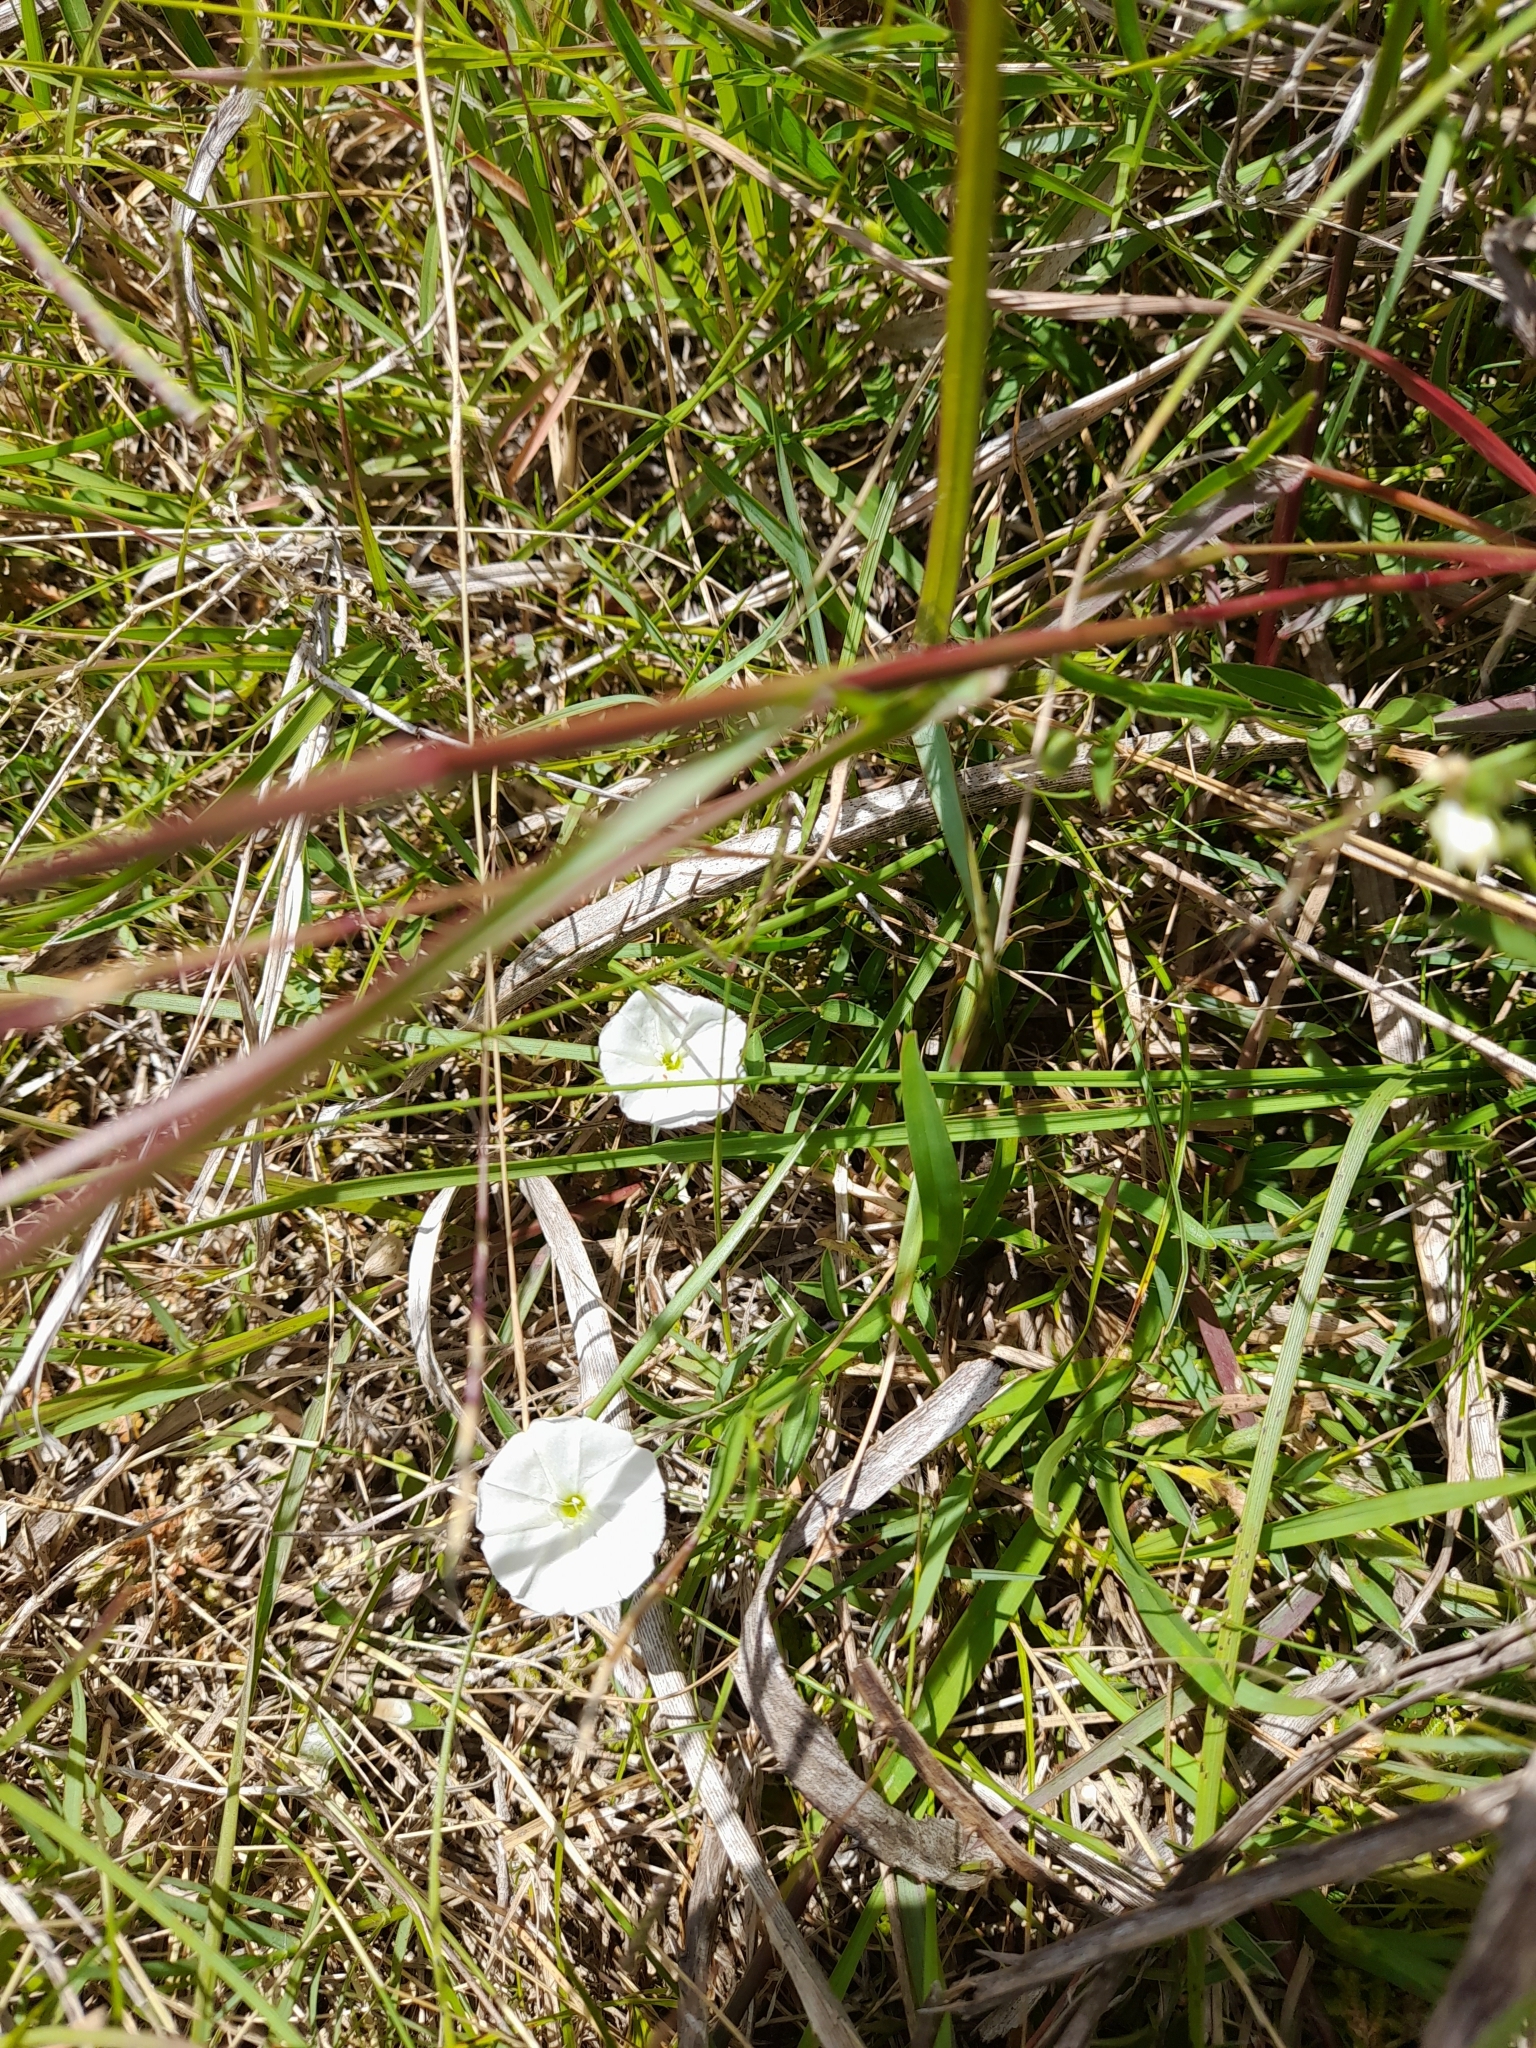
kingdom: Plantae
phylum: Tracheophyta
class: Magnoliopsida
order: Solanales
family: Convolvulaceae
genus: Evolvulus
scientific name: Evolvulus sericeus
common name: Blue dots
